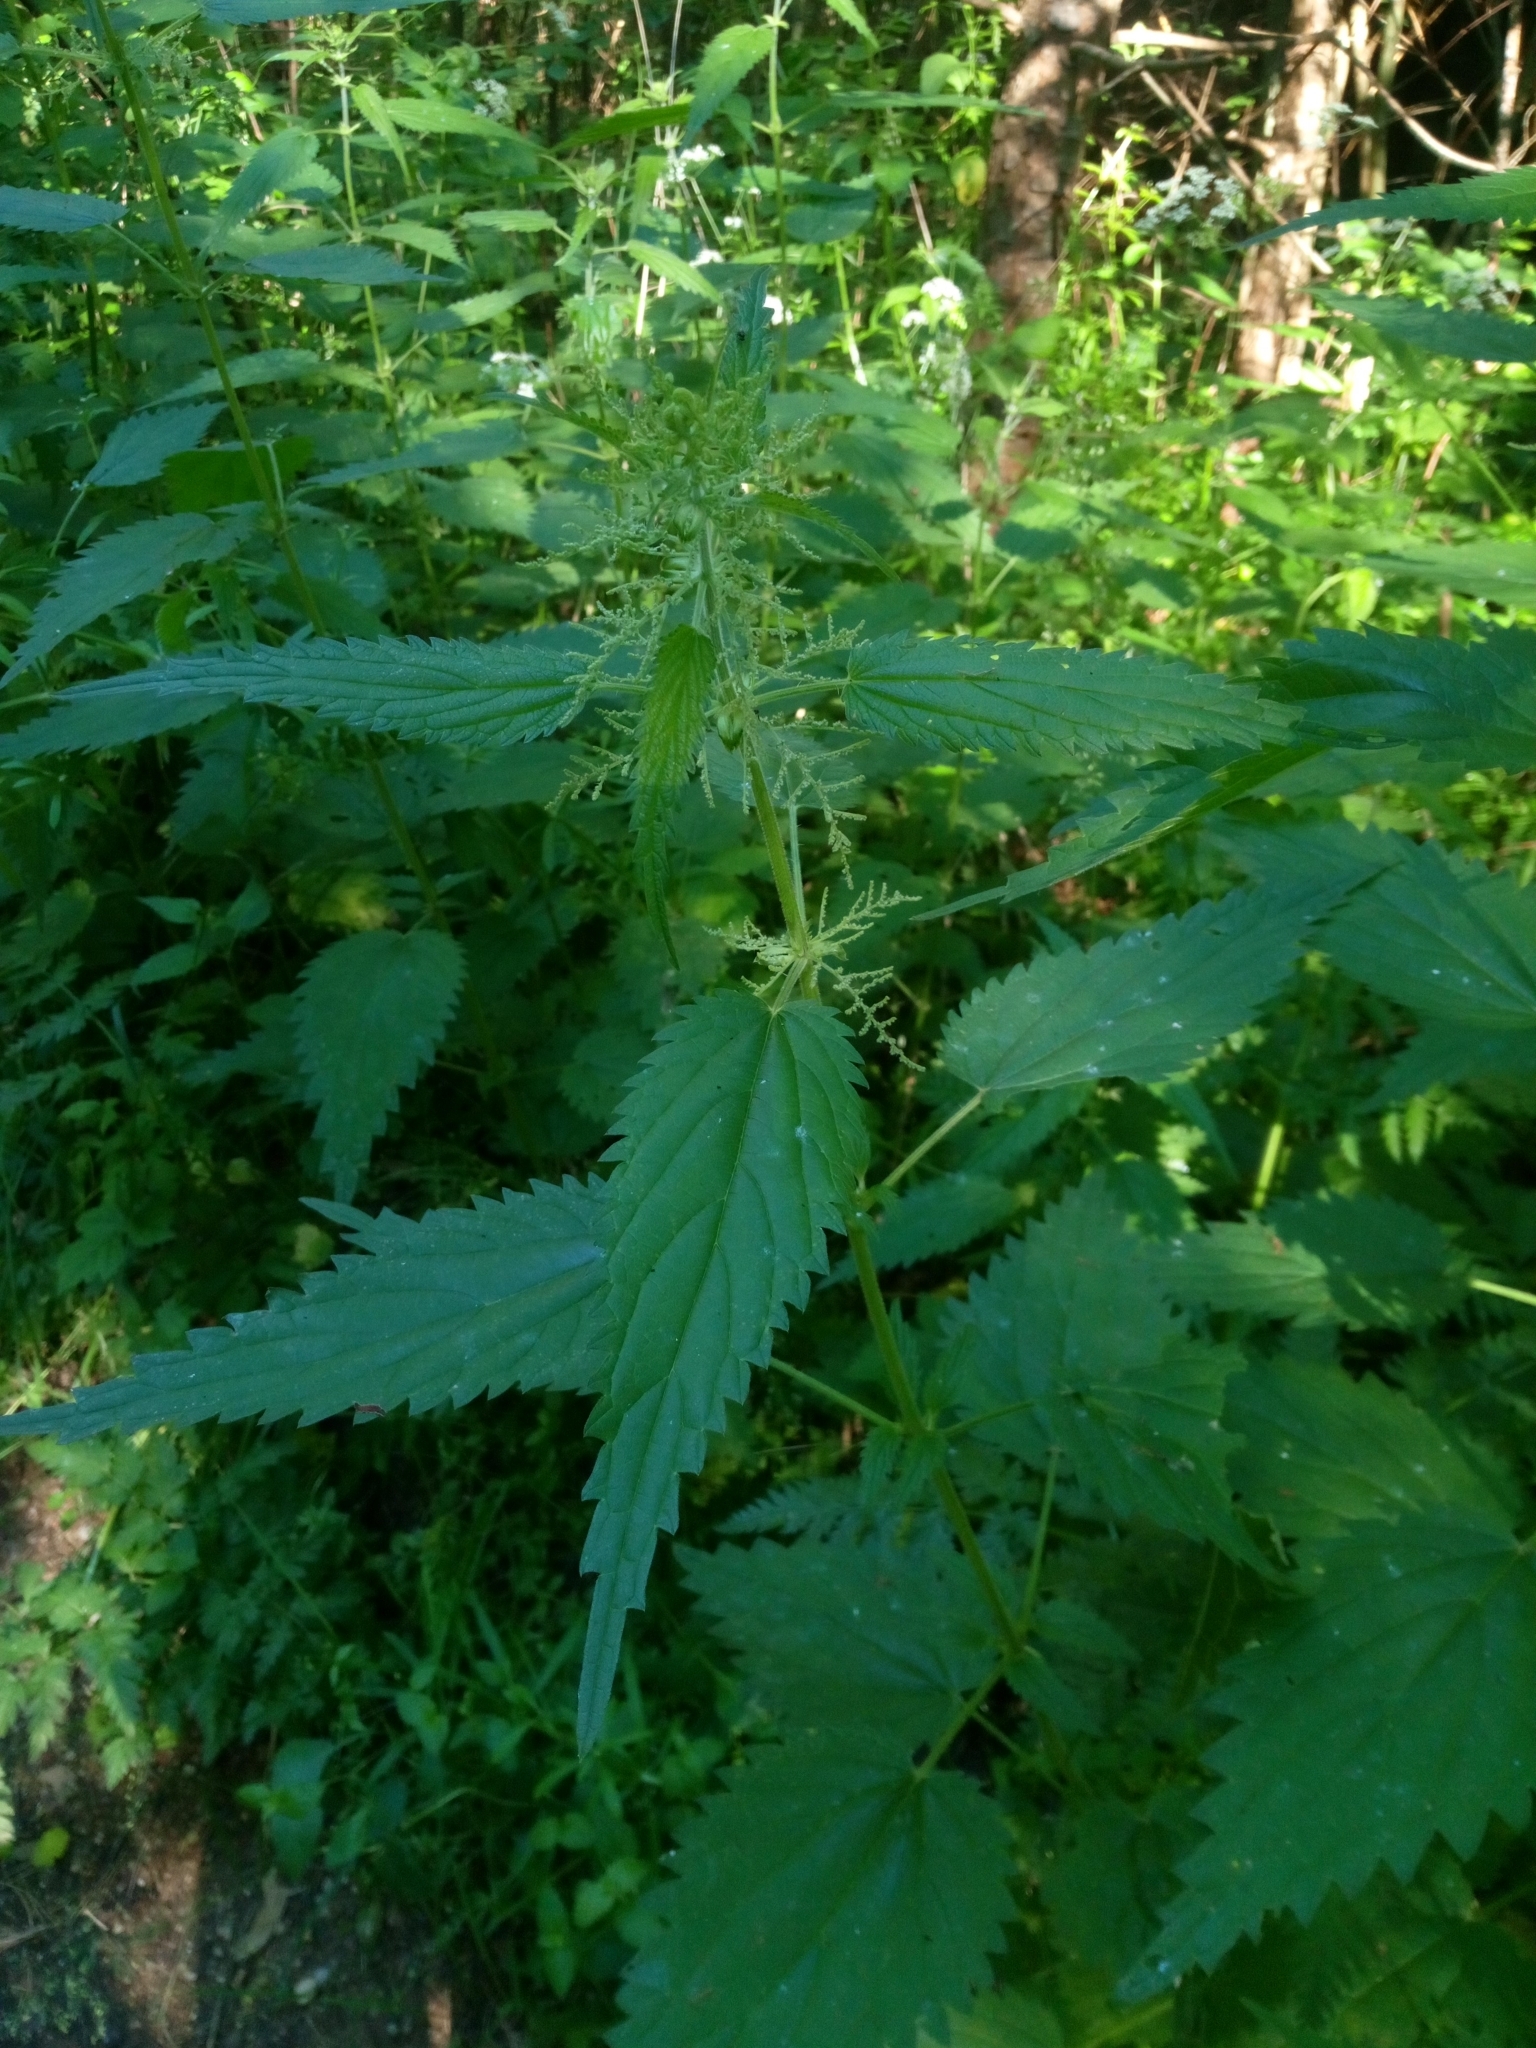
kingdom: Plantae
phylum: Tracheophyta
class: Magnoliopsida
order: Rosales
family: Urticaceae
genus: Urtica
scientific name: Urtica dioica
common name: Common nettle
